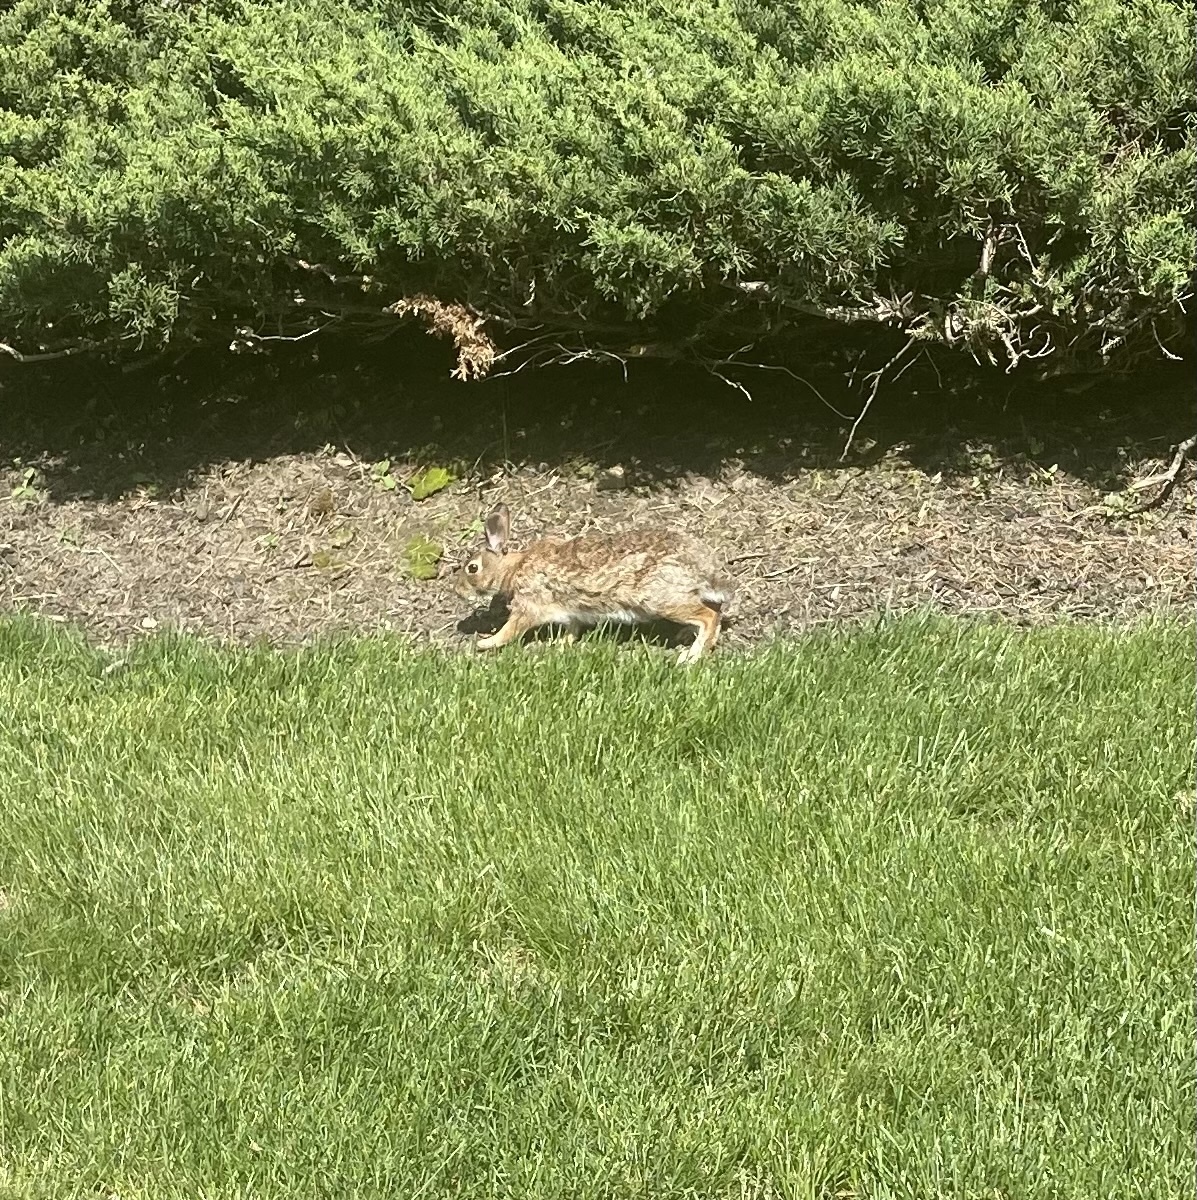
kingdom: Animalia
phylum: Chordata
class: Mammalia
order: Lagomorpha
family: Leporidae
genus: Sylvilagus
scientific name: Sylvilagus floridanus
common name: Eastern cottontail
